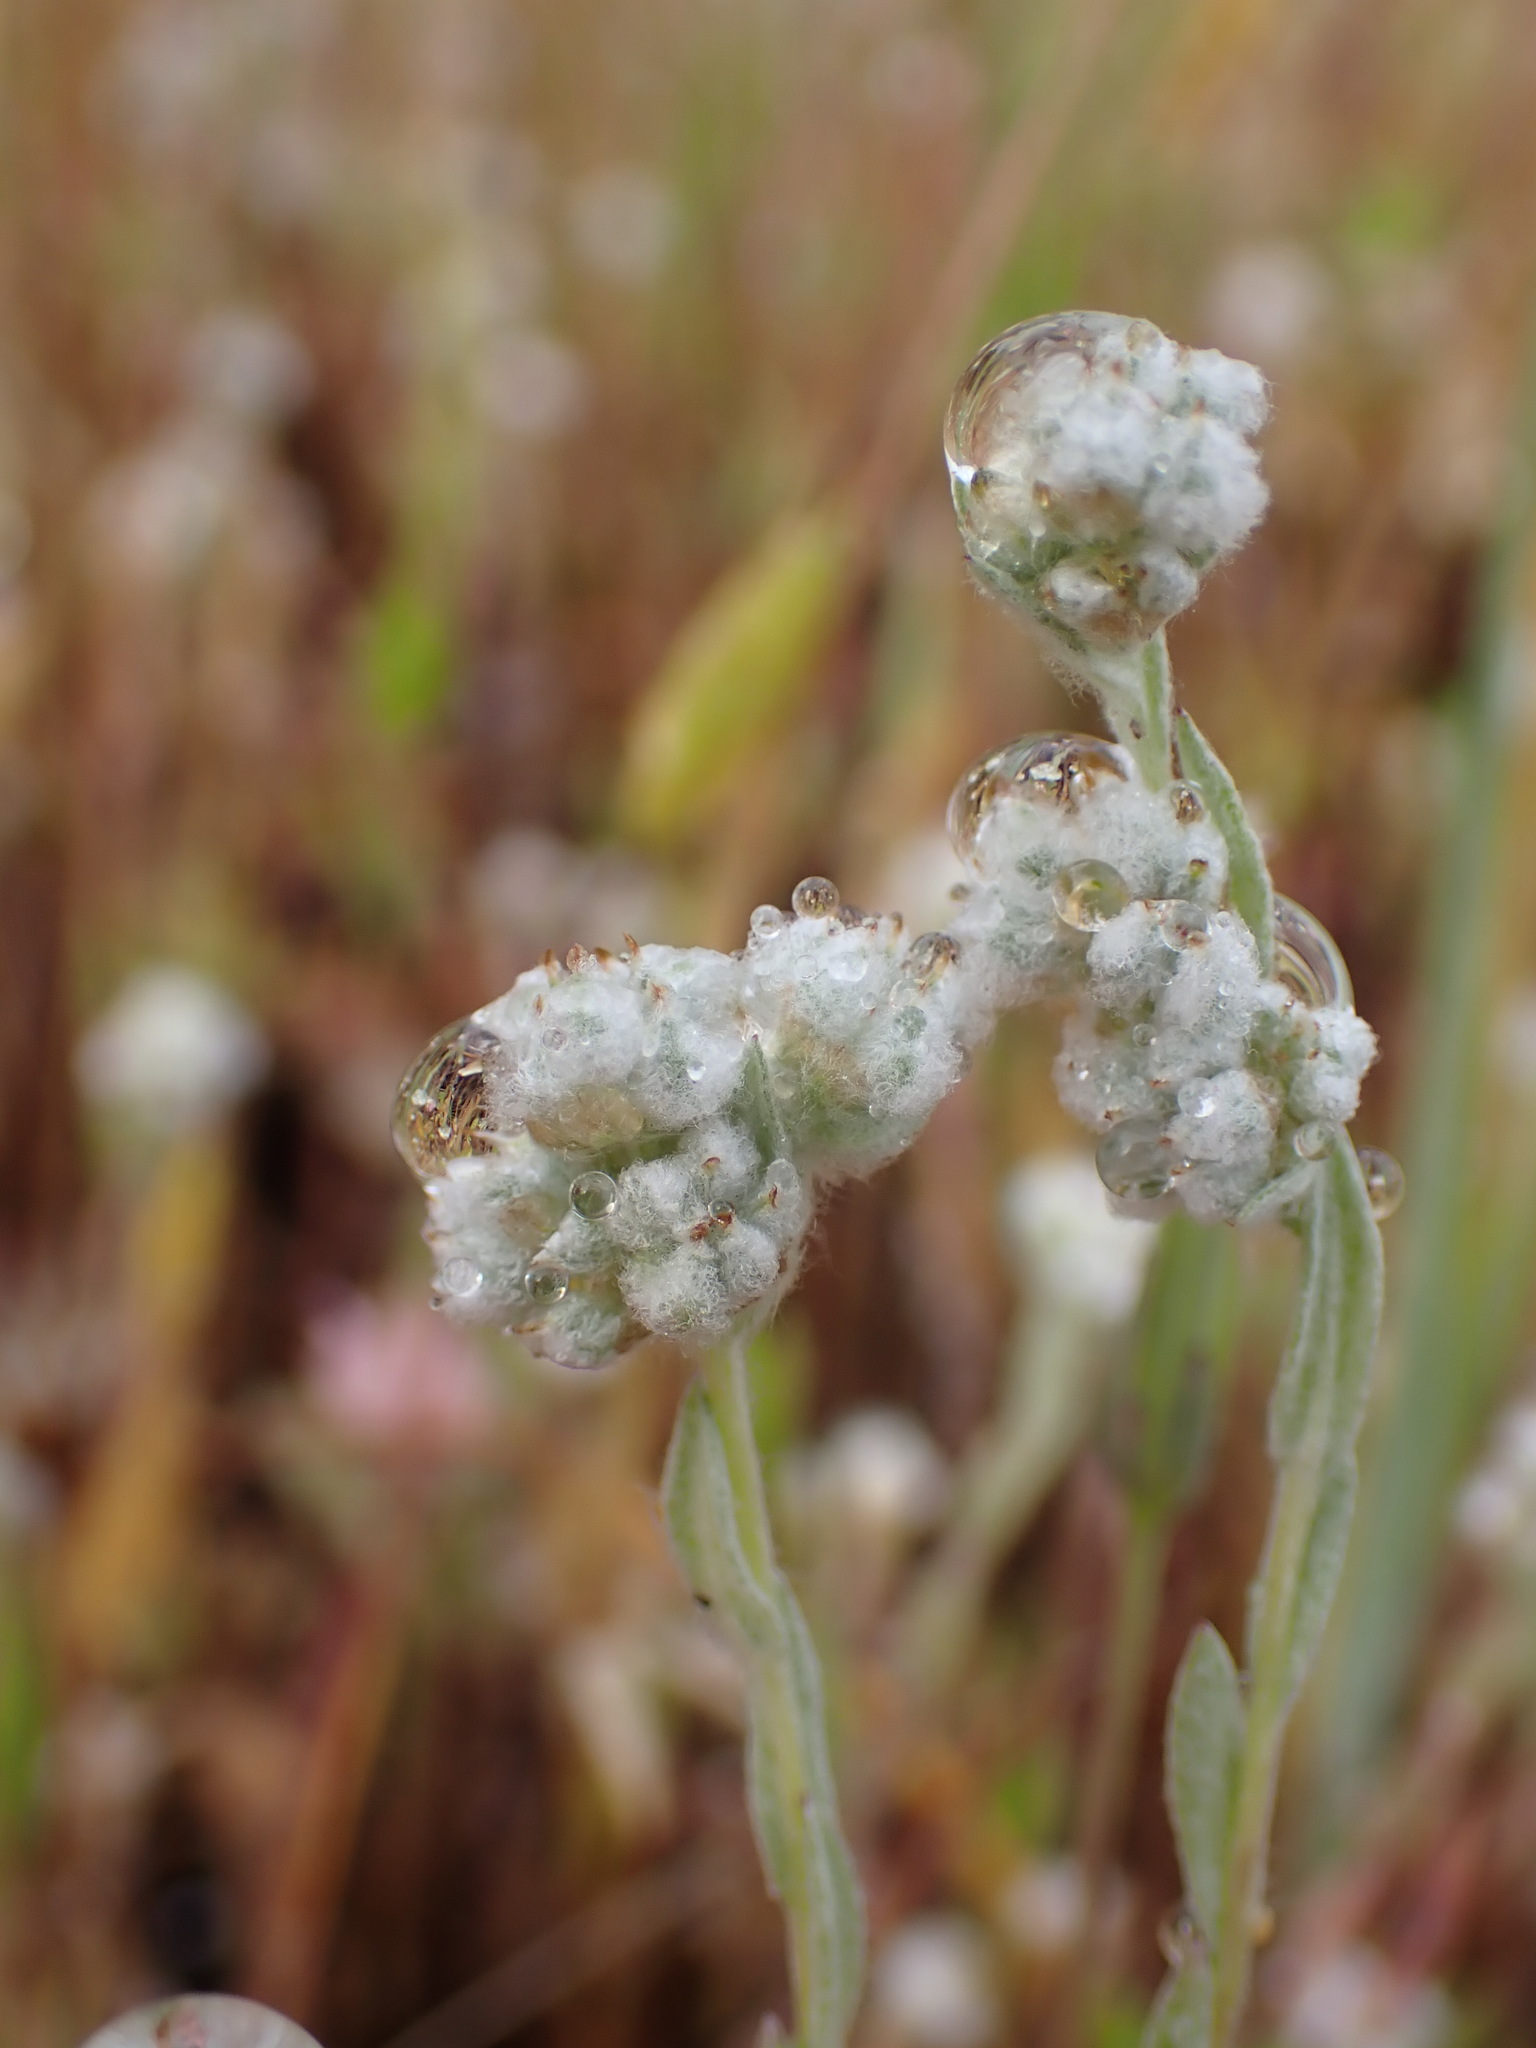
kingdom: Plantae
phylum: Tracheophyta
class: Magnoliopsida
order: Asterales
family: Asteraceae
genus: Bombycilaena
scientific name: Bombycilaena californica
